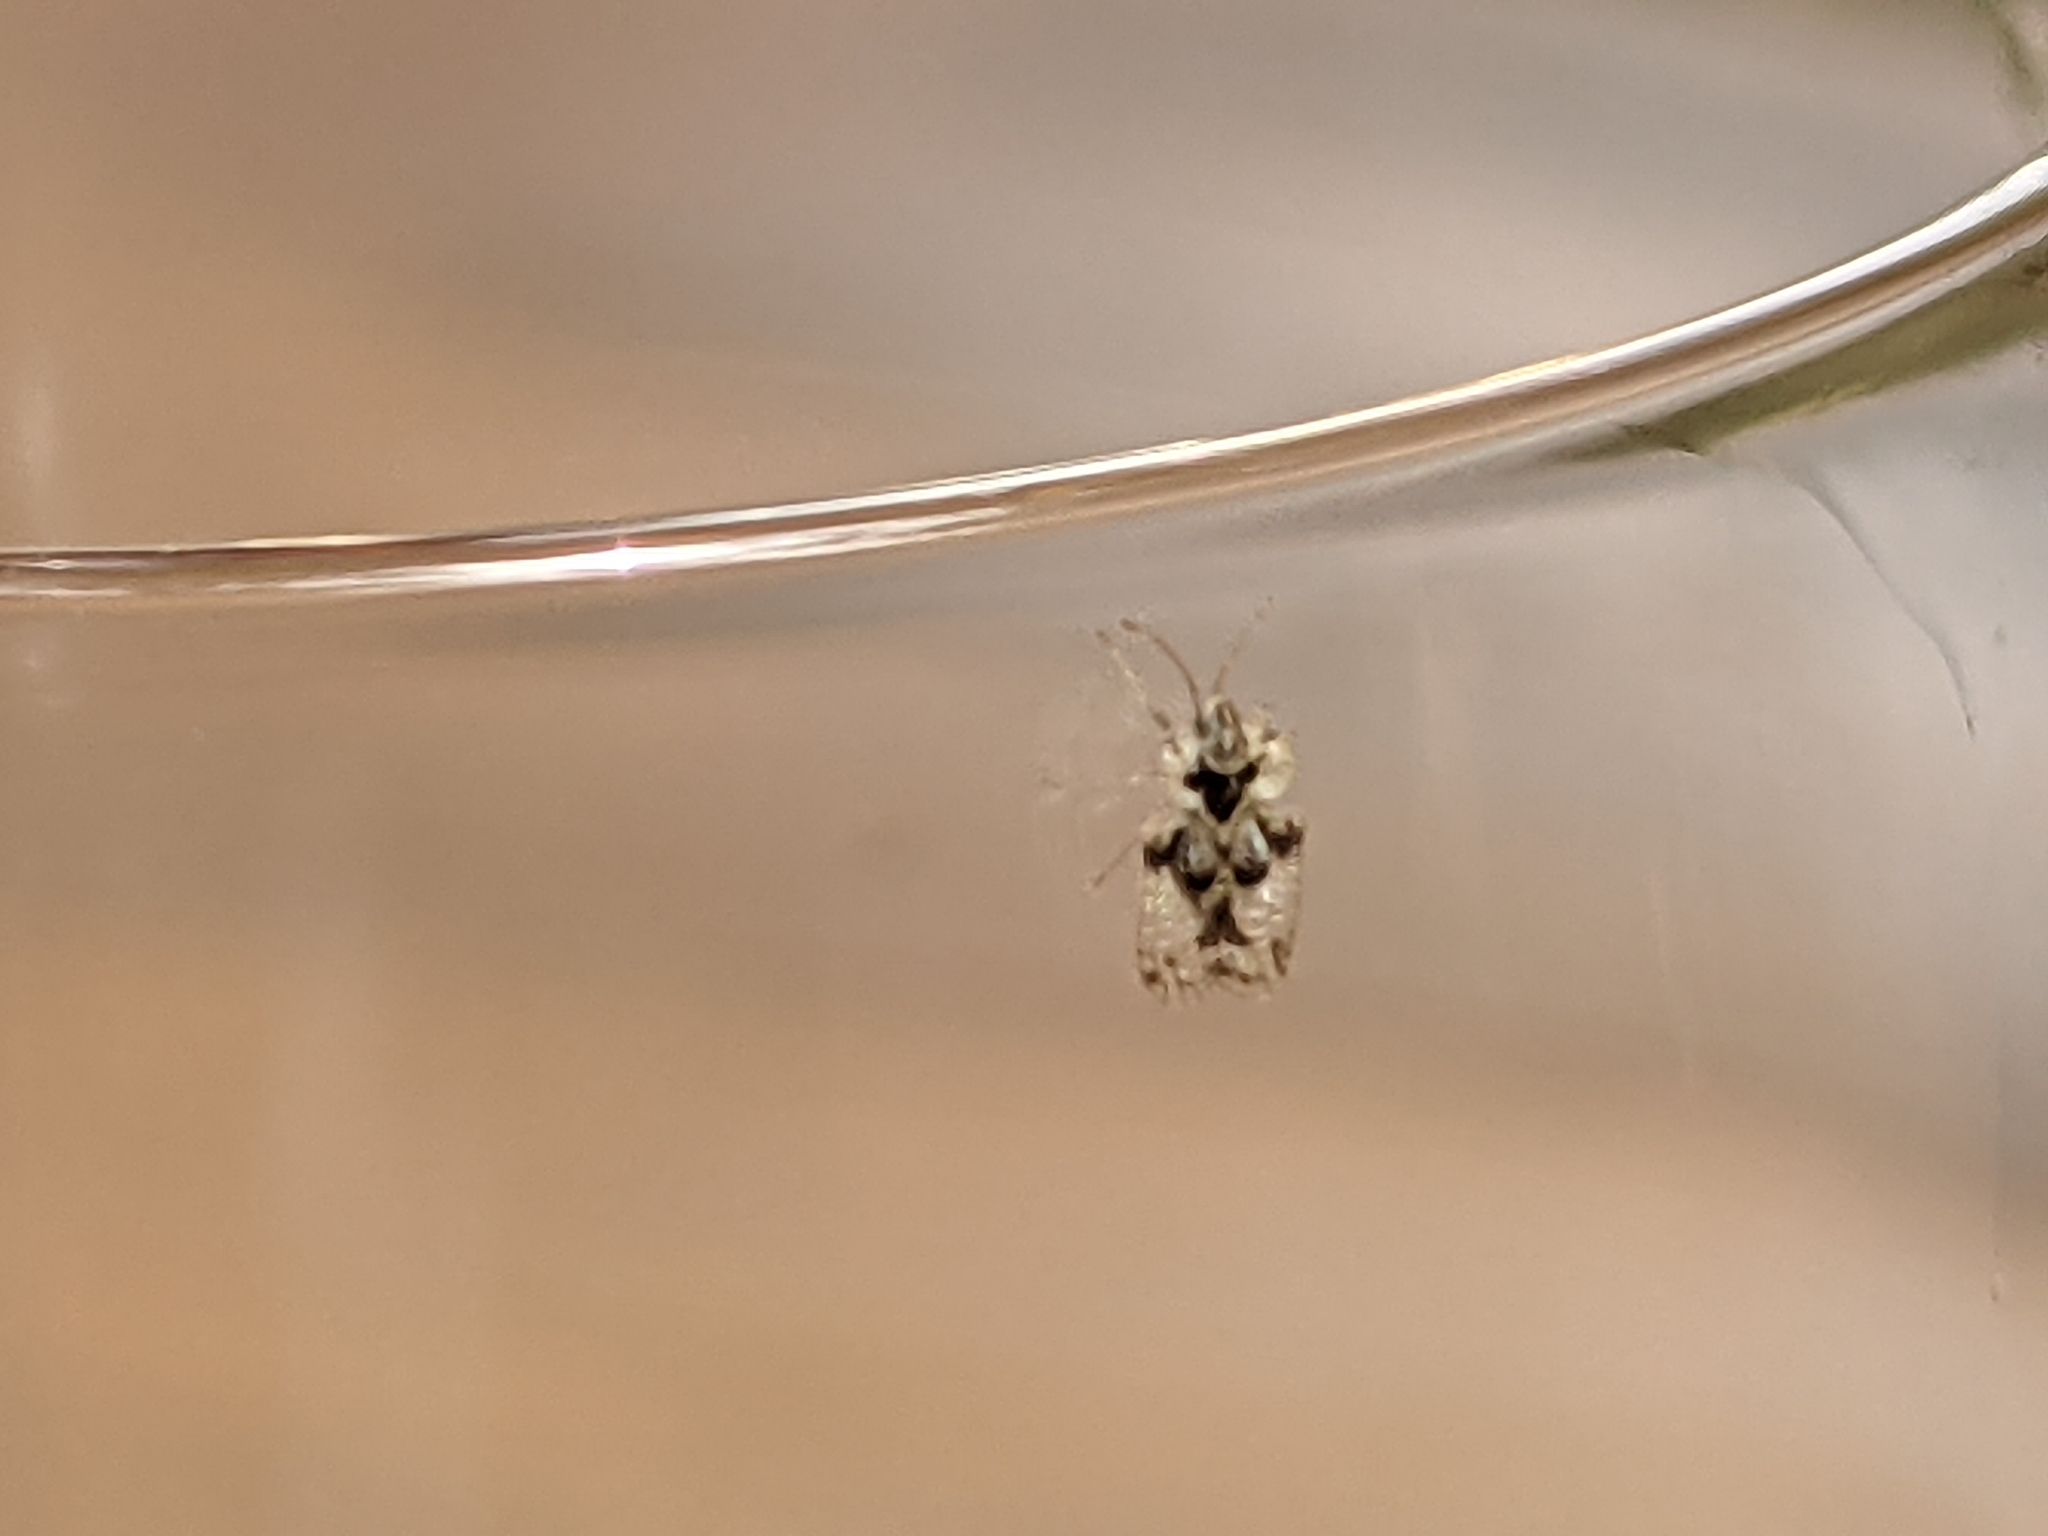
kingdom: Animalia
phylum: Arthropoda
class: Insecta
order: Hemiptera
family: Tingidae
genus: Corythucha
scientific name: Corythucha arcuata
